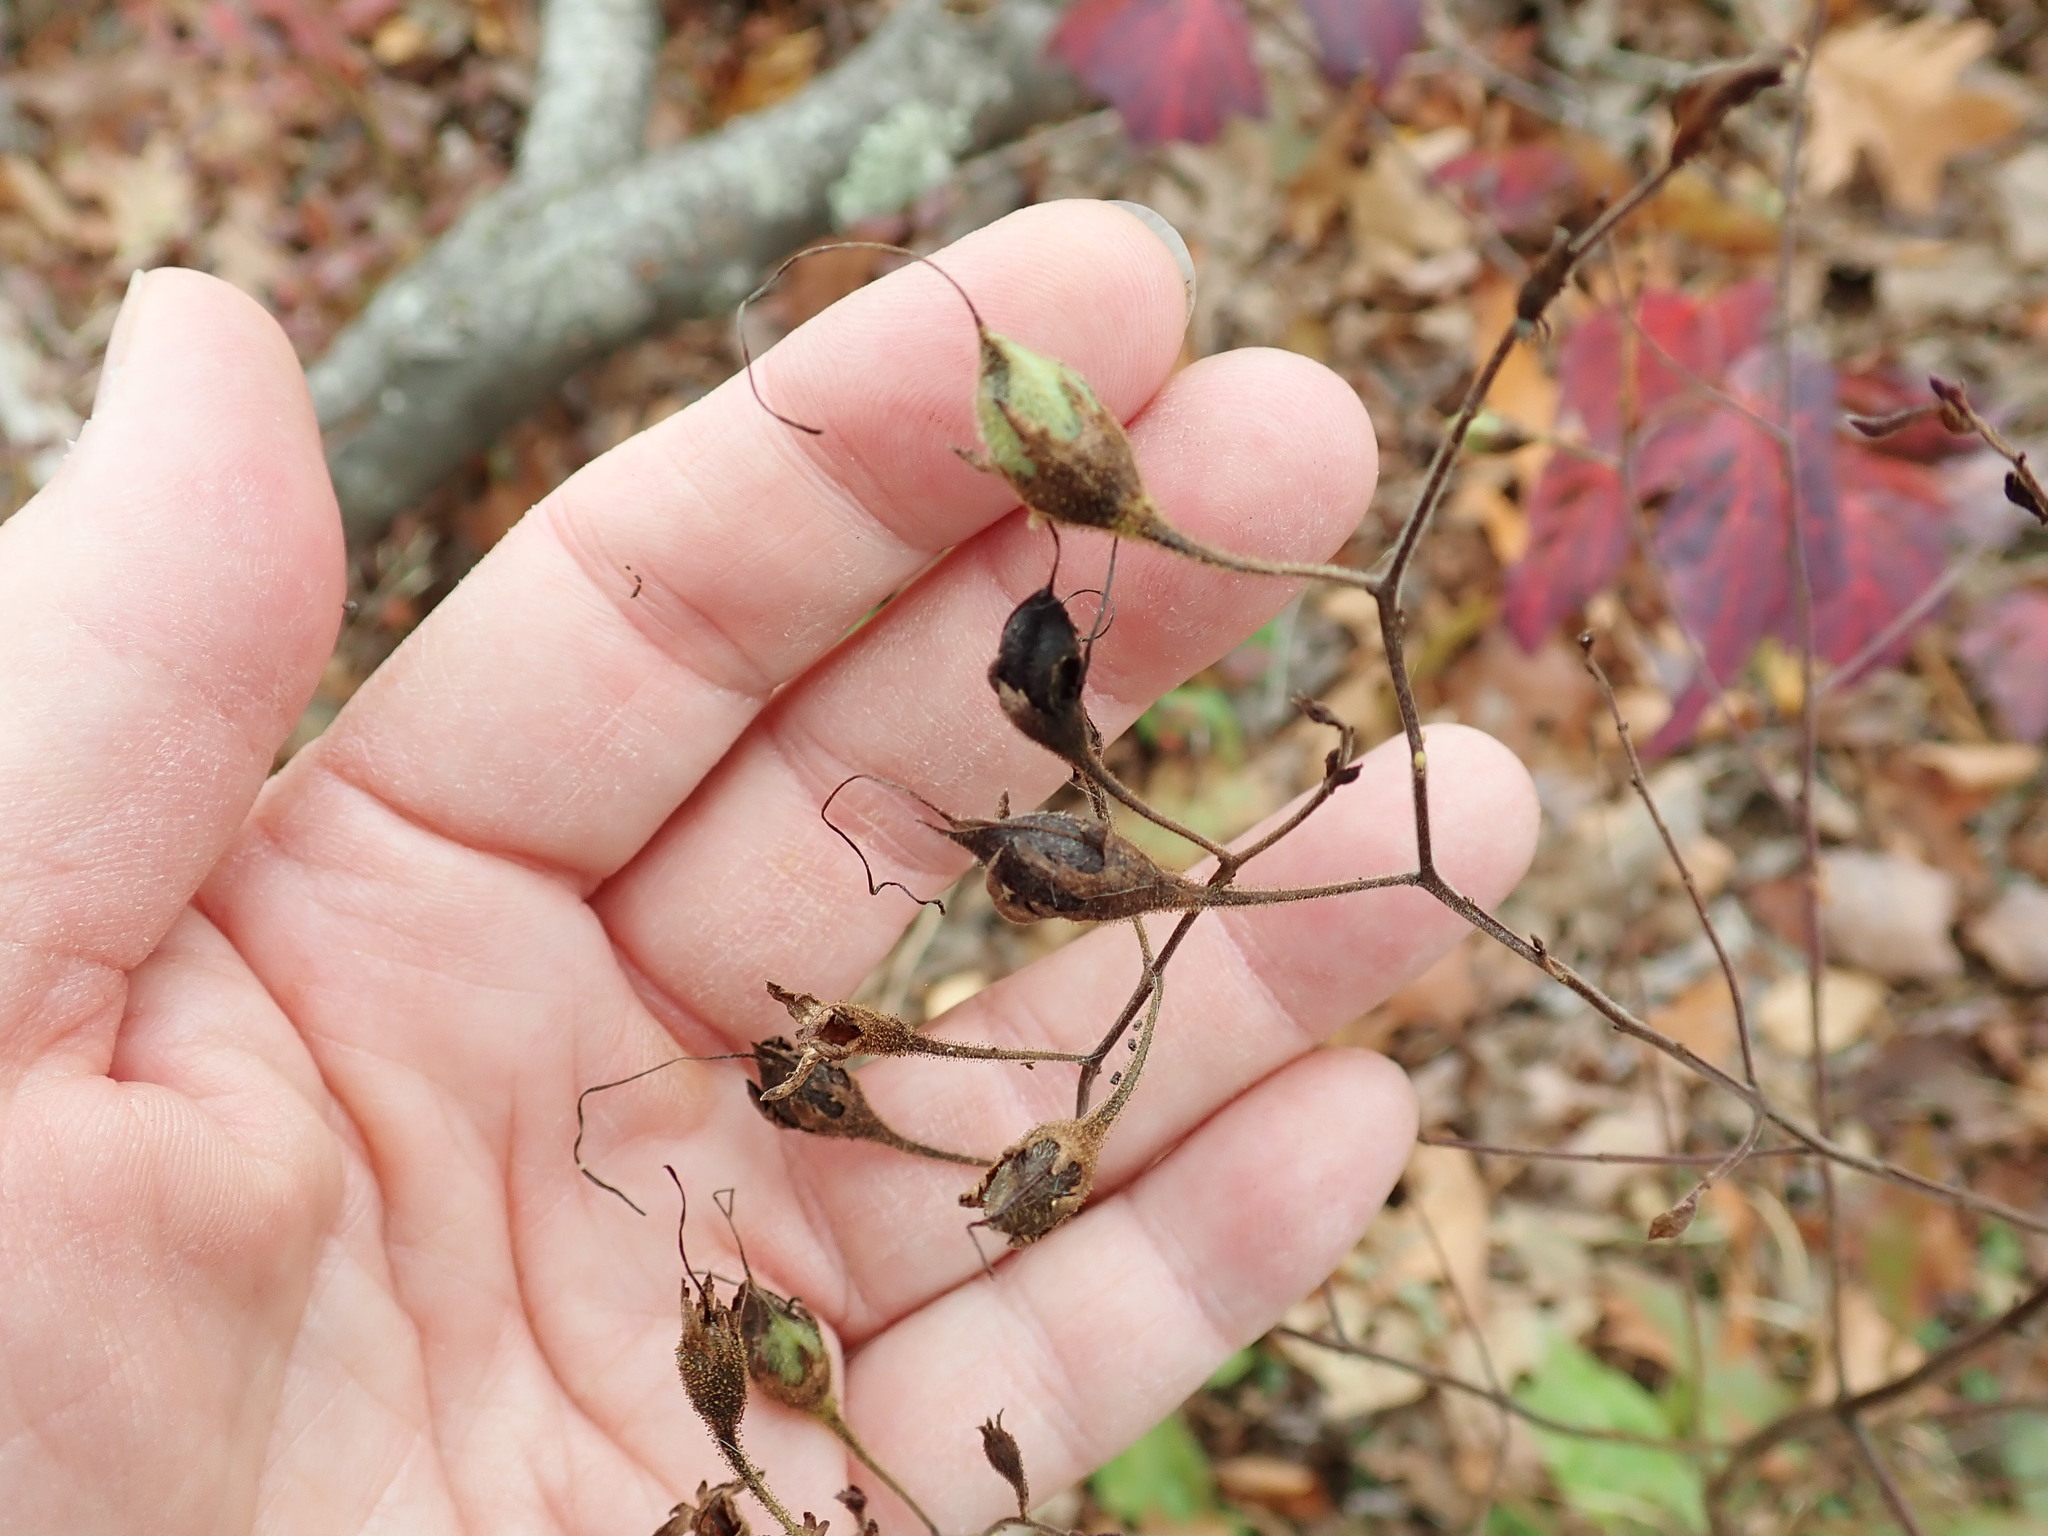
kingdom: Plantae
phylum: Tracheophyta
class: Magnoliopsida
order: Lamiales
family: Orobanchaceae
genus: Aureolaria
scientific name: Aureolaria pedicularia
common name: Annual false foxglove
